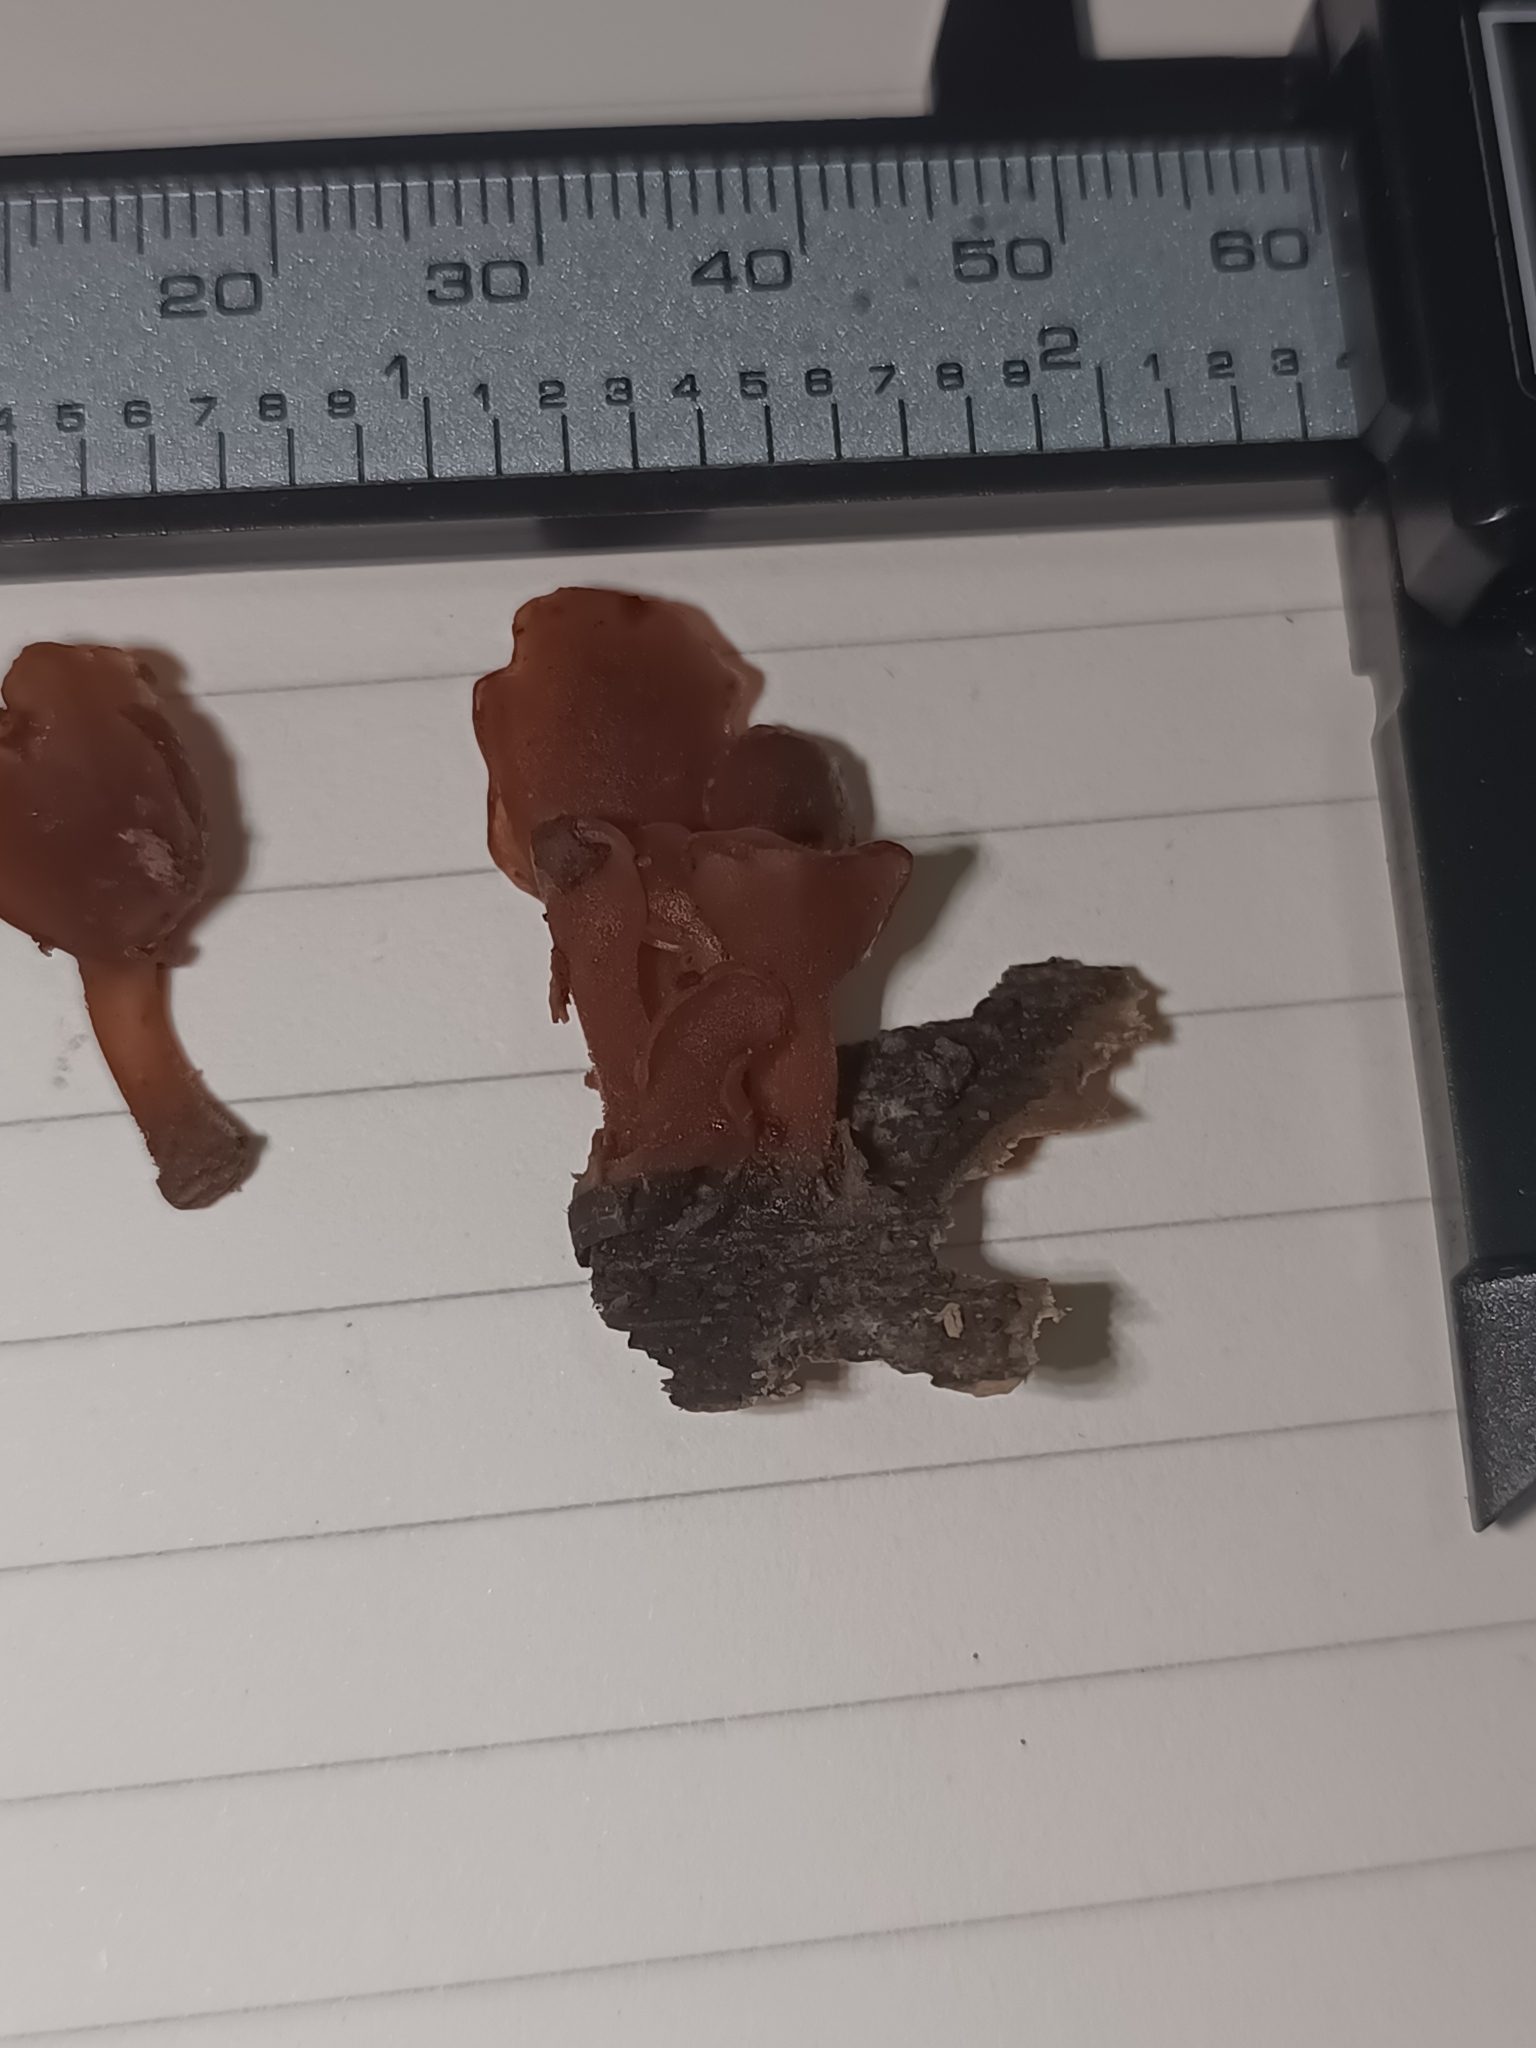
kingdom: Fungi
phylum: Basidiomycota
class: Dacrymycetes
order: Dacrymycetales
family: Dacrymycetaceae
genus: Dacryopinax
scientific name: Dacryopinax elegans
